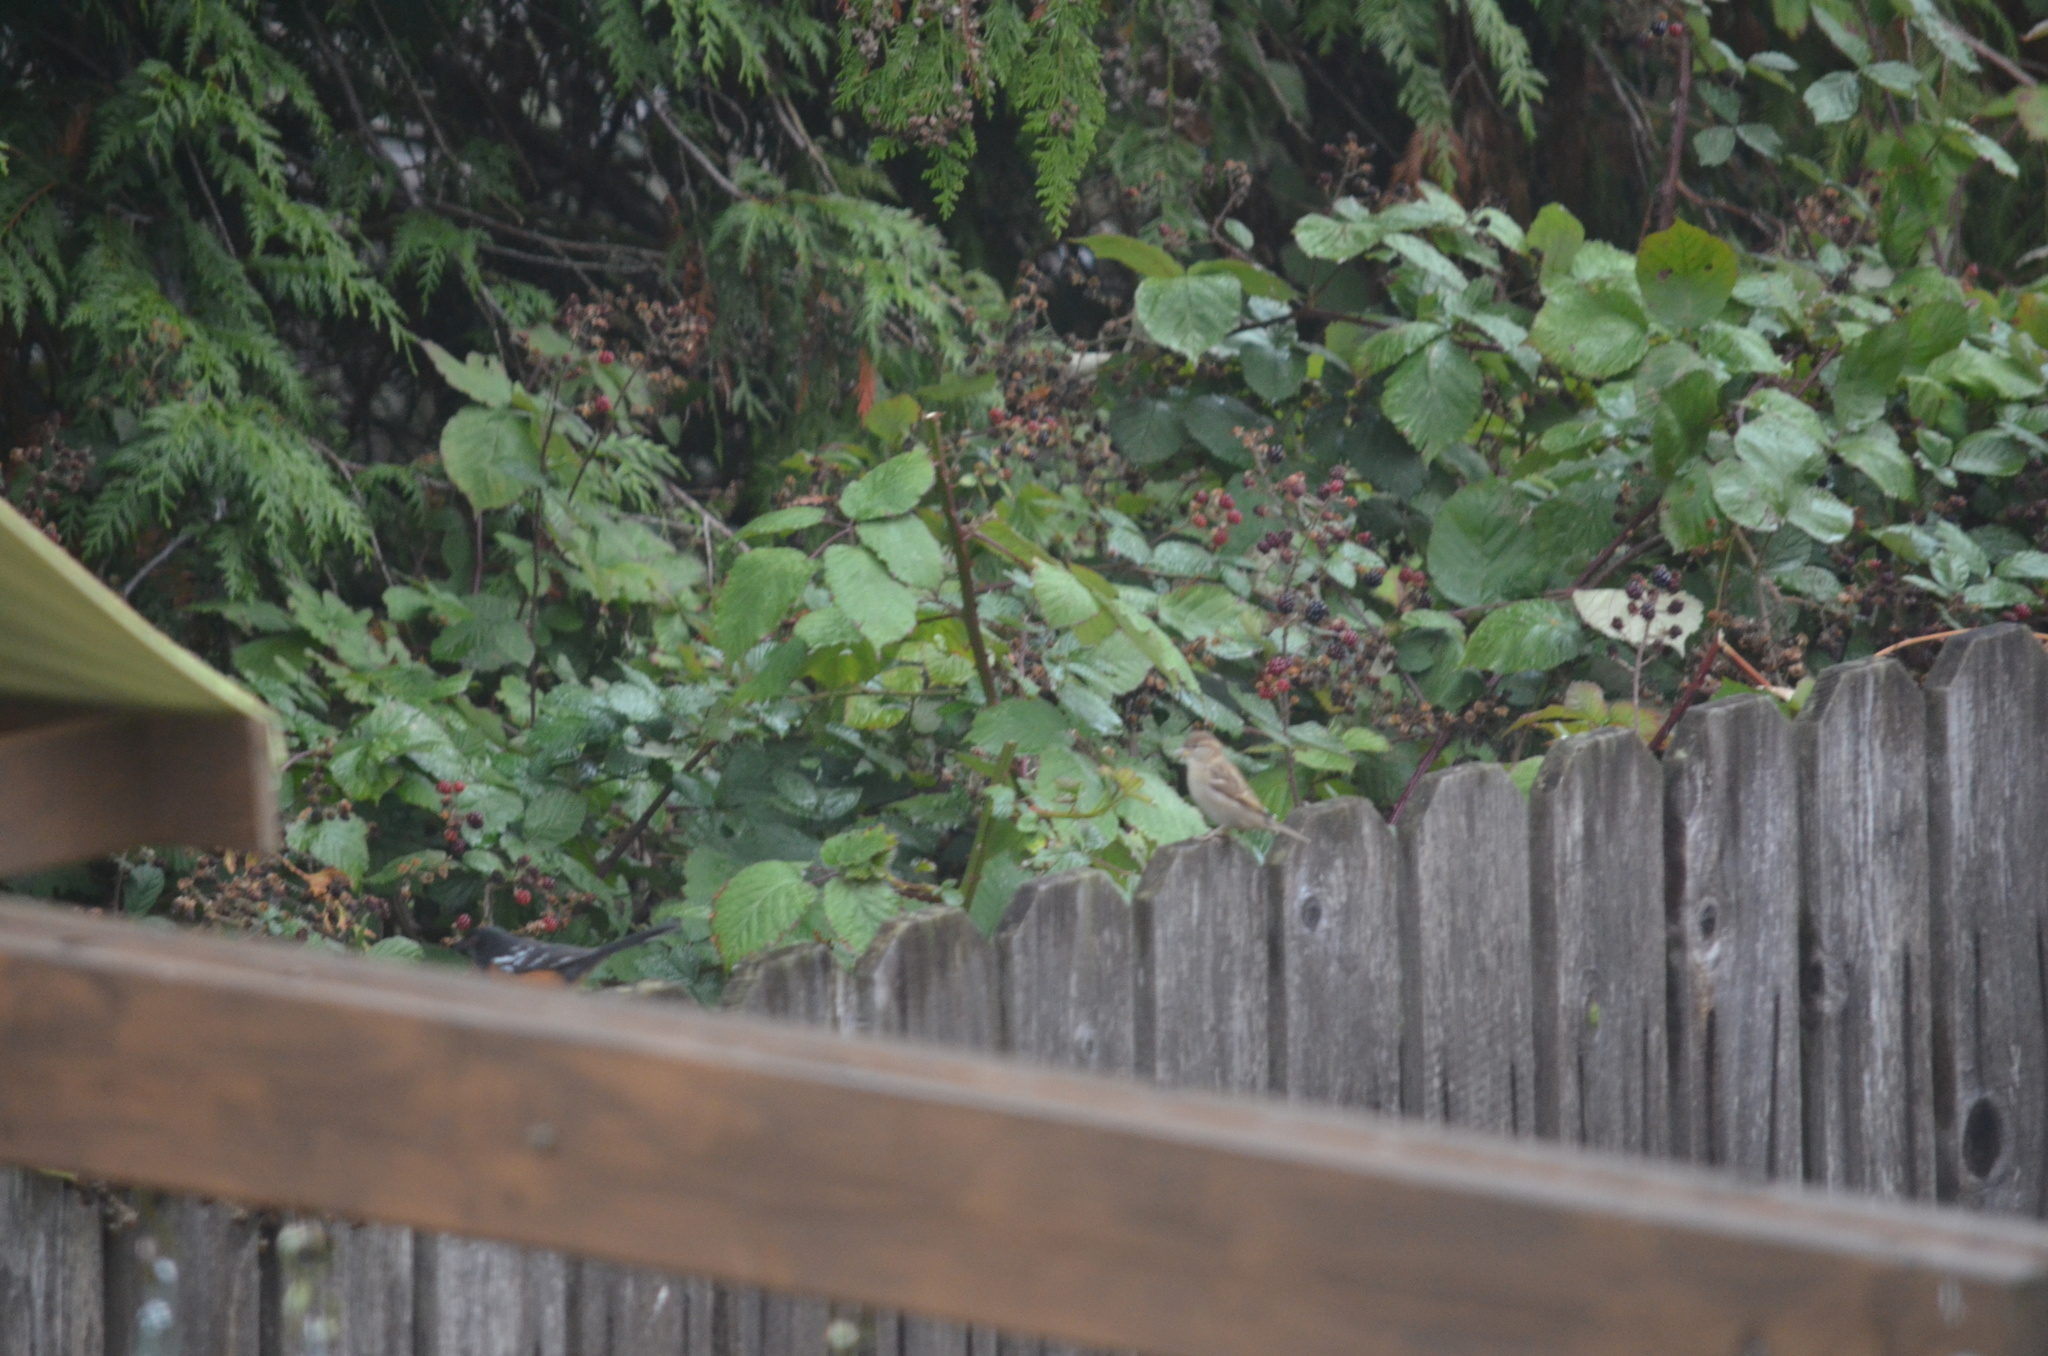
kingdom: Animalia
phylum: Chordata
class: Aves
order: Passeriformes
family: Passeridae
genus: Passer
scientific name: Passer domesticus
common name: House sparrow
